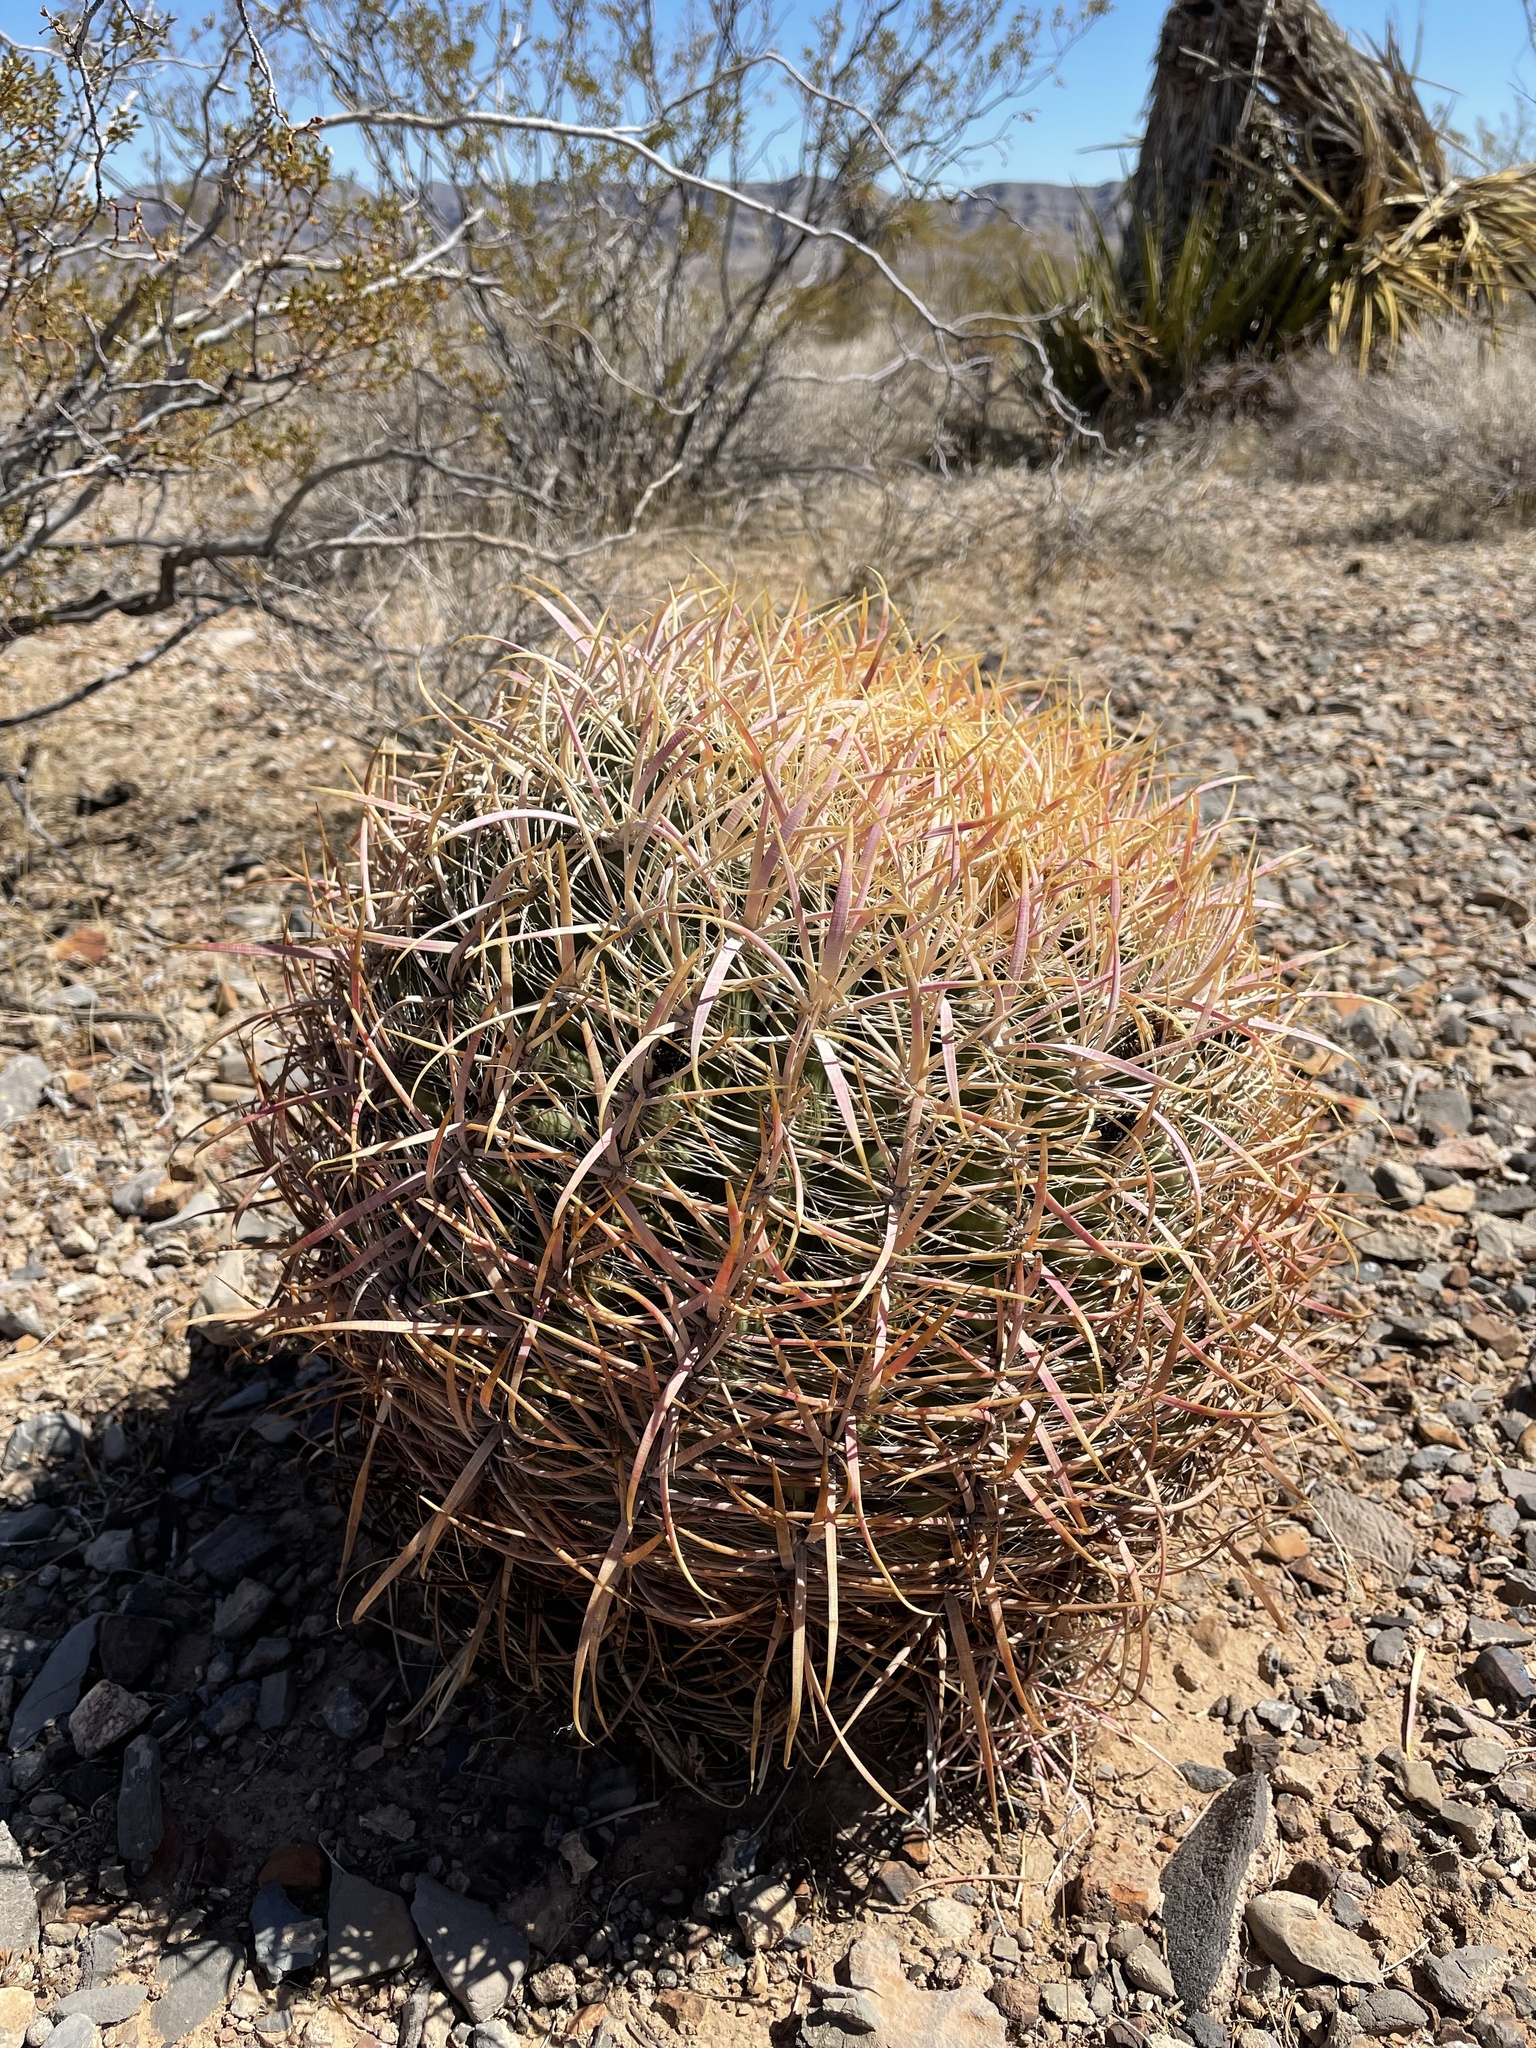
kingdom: Plantae
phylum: Tracheophyta
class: Magnoliopsida
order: Caryophyllales
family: Cactaceae
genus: Ferocactus
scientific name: Ferocactus cylindraceus
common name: California barrel cactus
